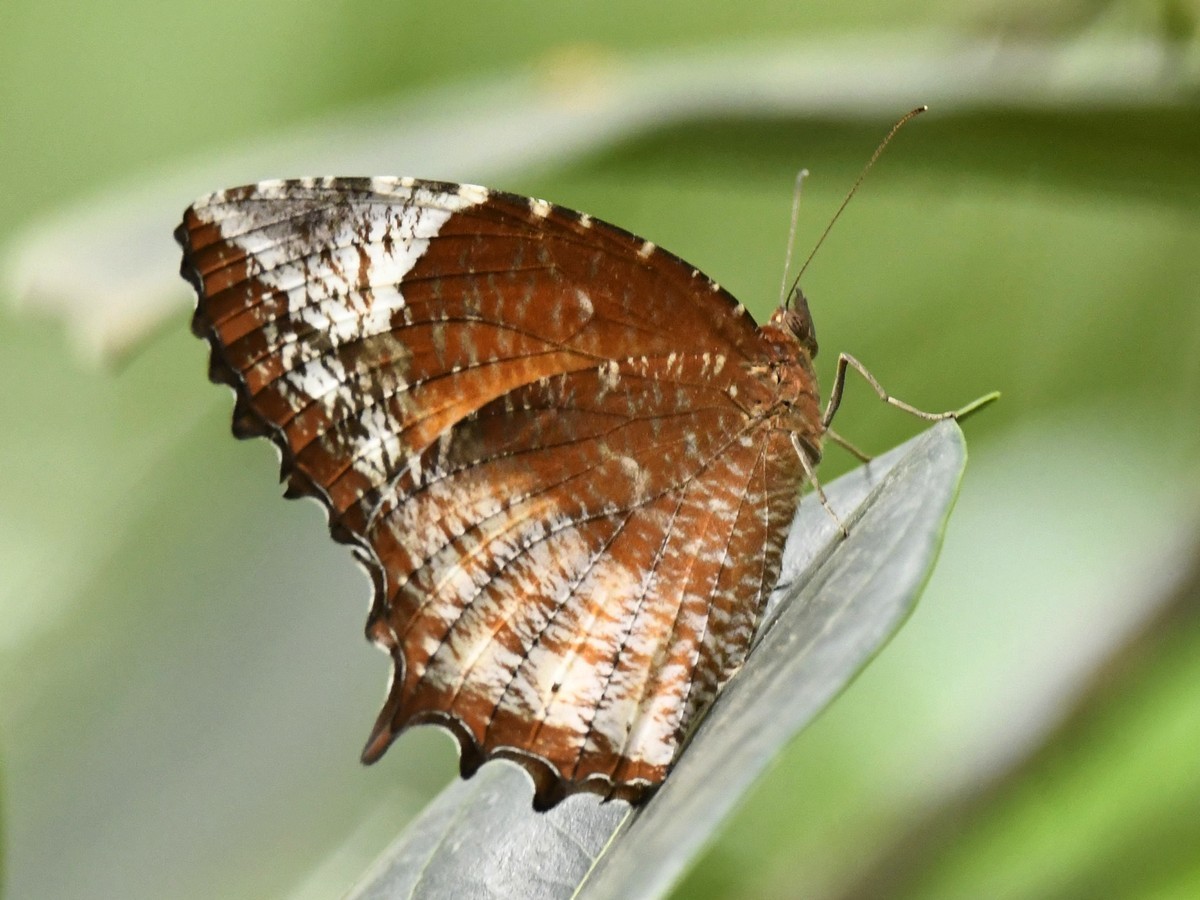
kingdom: Animalia
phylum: Arthropoda
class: Insecta
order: Lepidoptera
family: Nymphalidae
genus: Elymnias
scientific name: Elymnias caudata
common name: Tailed palmfly
